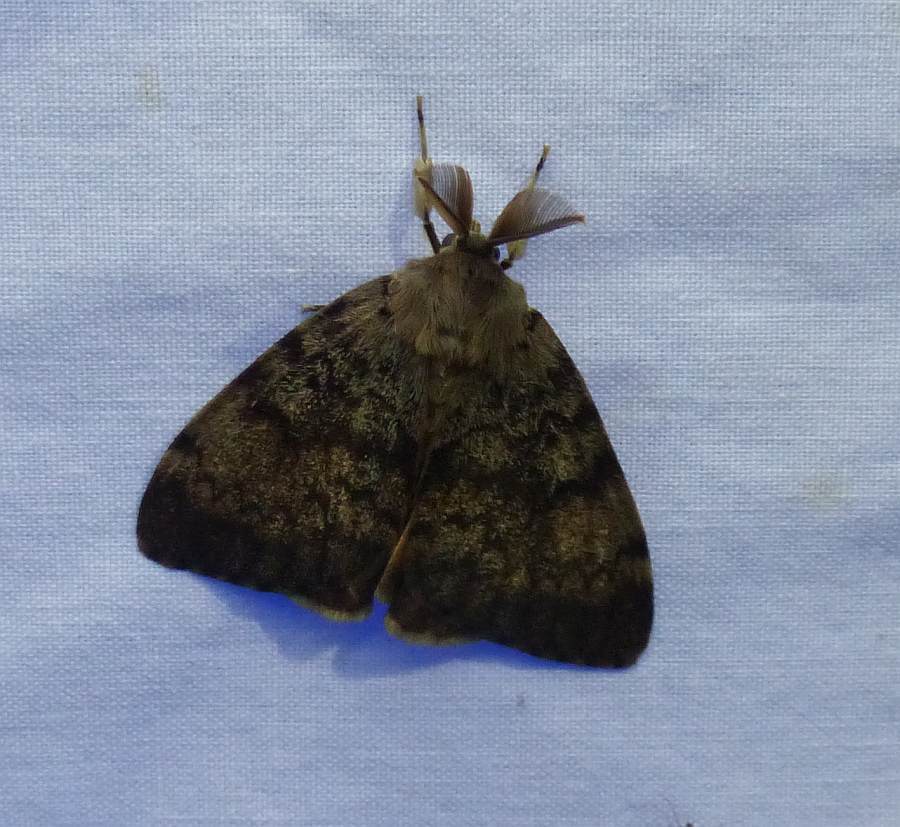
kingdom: Animalia
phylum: Arthropoda
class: Insecta
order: Lepidoptera
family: Erebidae
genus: Lymantria
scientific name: Lymantria dispar
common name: Gypsy moth
